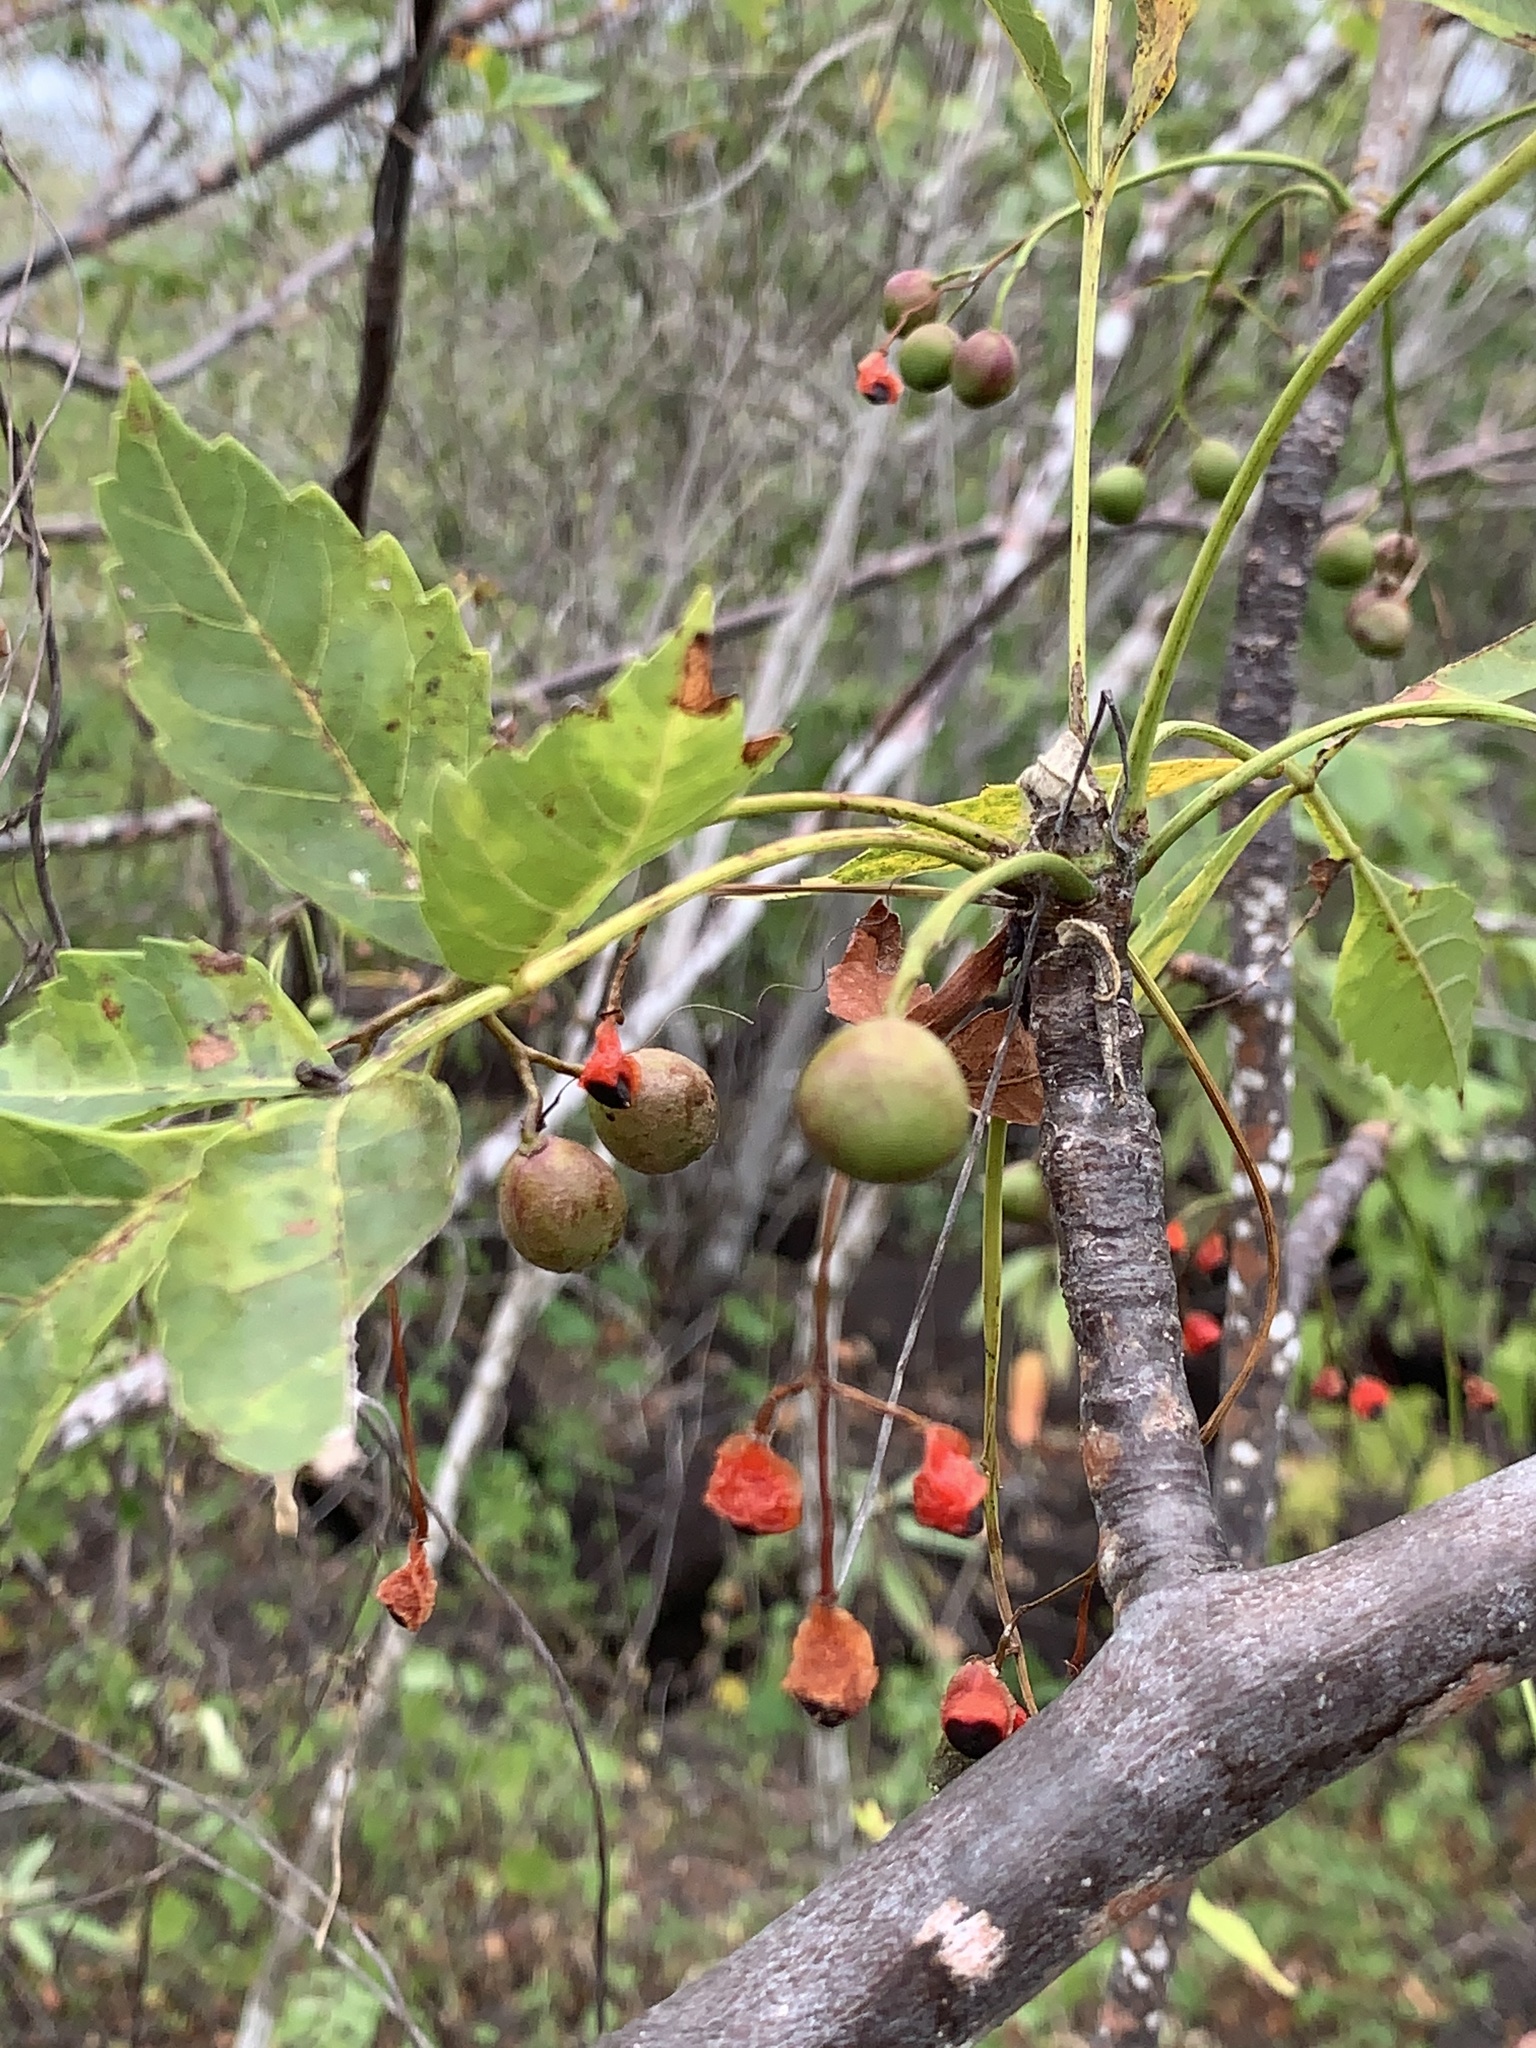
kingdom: Plantae
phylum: Tracheophyta
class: Magnoliopsida
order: Sapindales
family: Burseraceae
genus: Bursera
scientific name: Bursera graveolens
